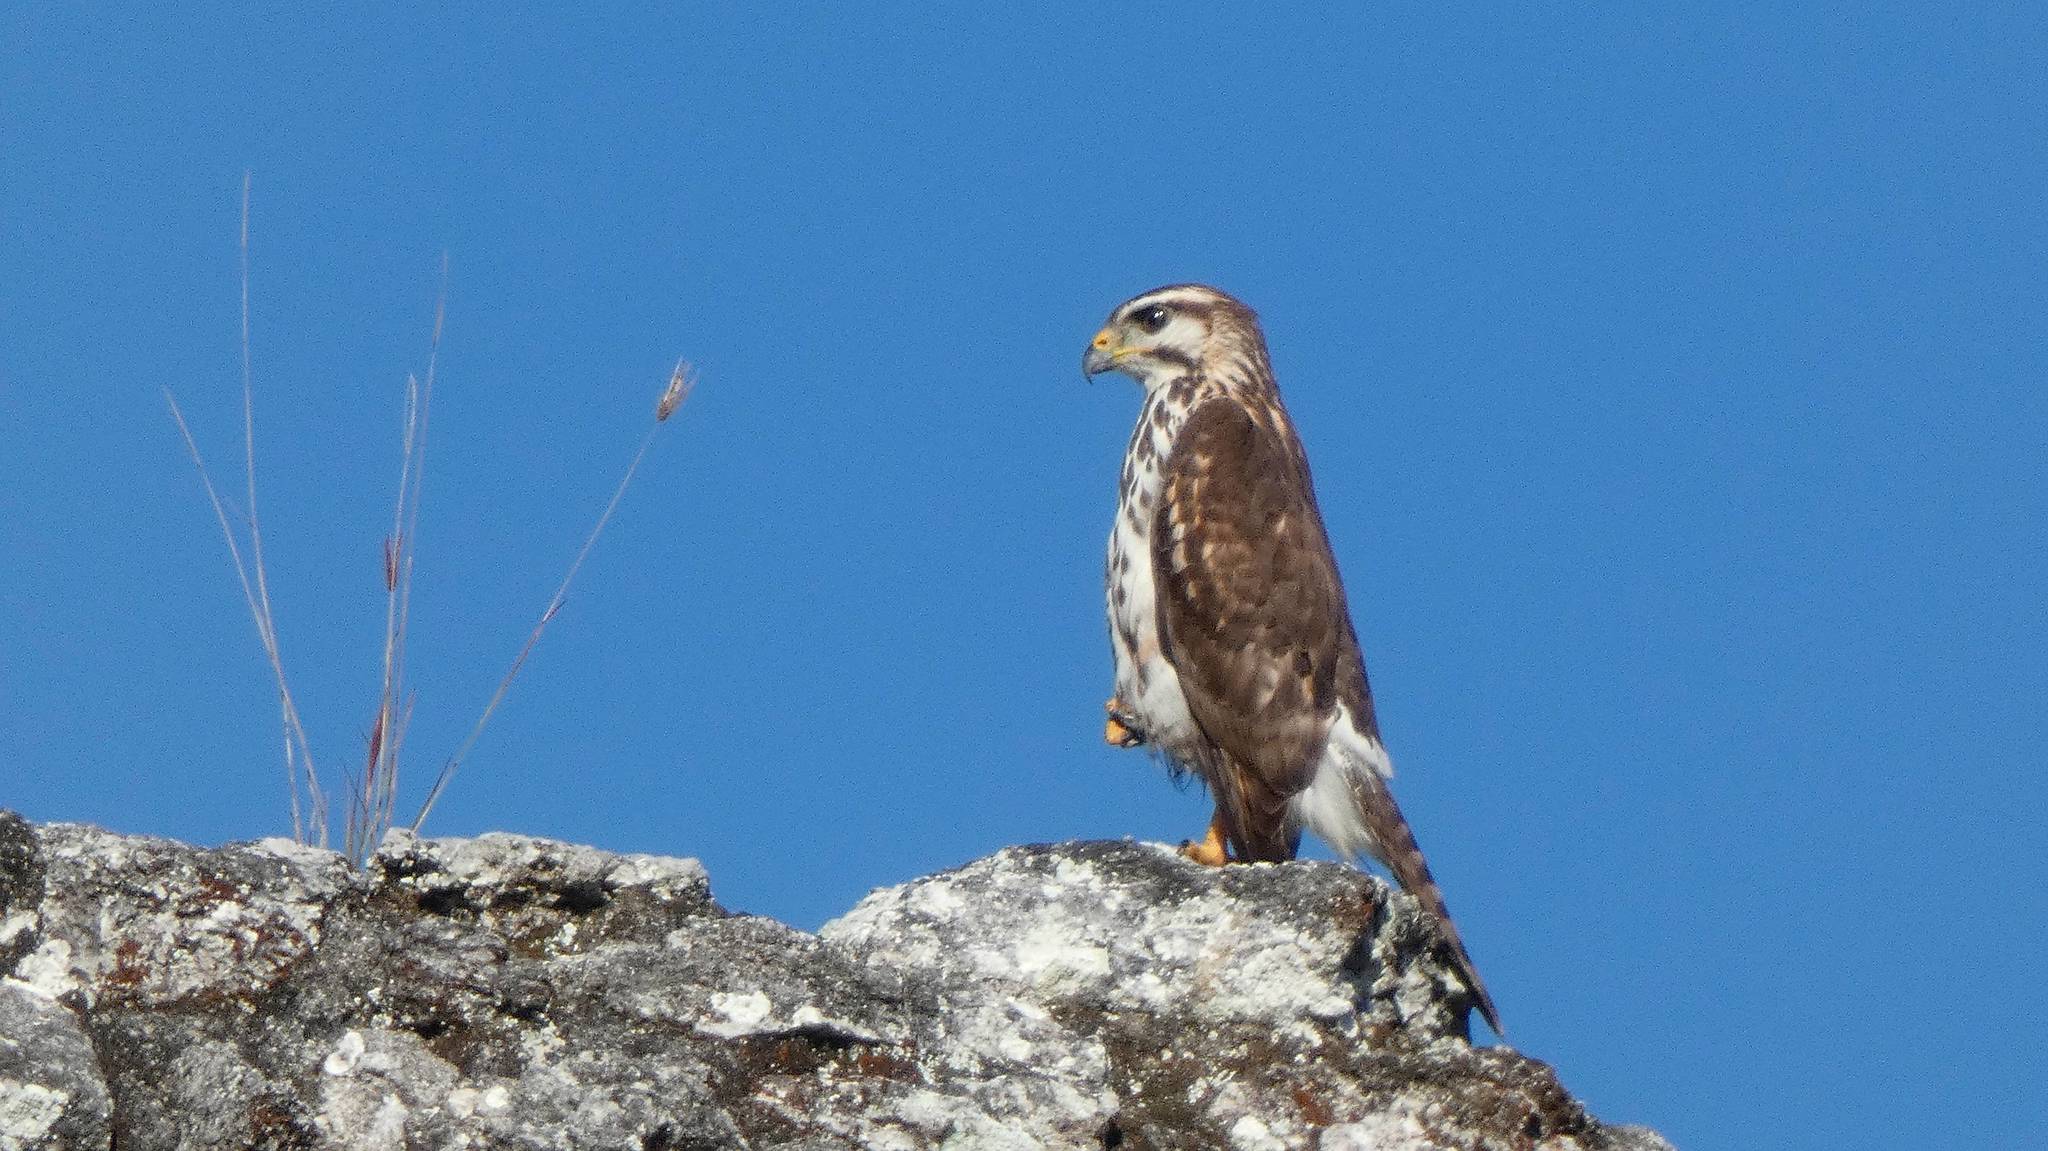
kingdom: Animalia
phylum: Chordata
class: Aves
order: Accipitriformes
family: Accipitridae
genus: Buteo
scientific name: Buteo nitidus
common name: Grey-lined hawk
